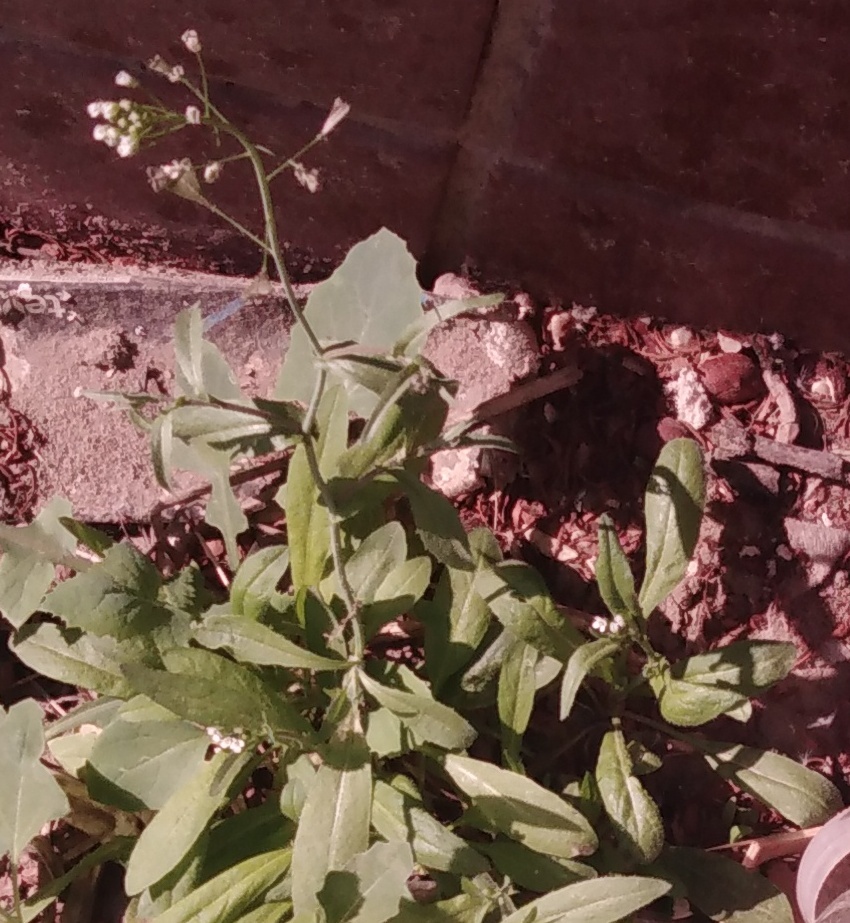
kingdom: Plantae
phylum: Tracheophyta
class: Magnoliopsida
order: Brassicales
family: Brassicaceae
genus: Capsella
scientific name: Capsella bursa-pastoris
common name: Shepherd's purse
